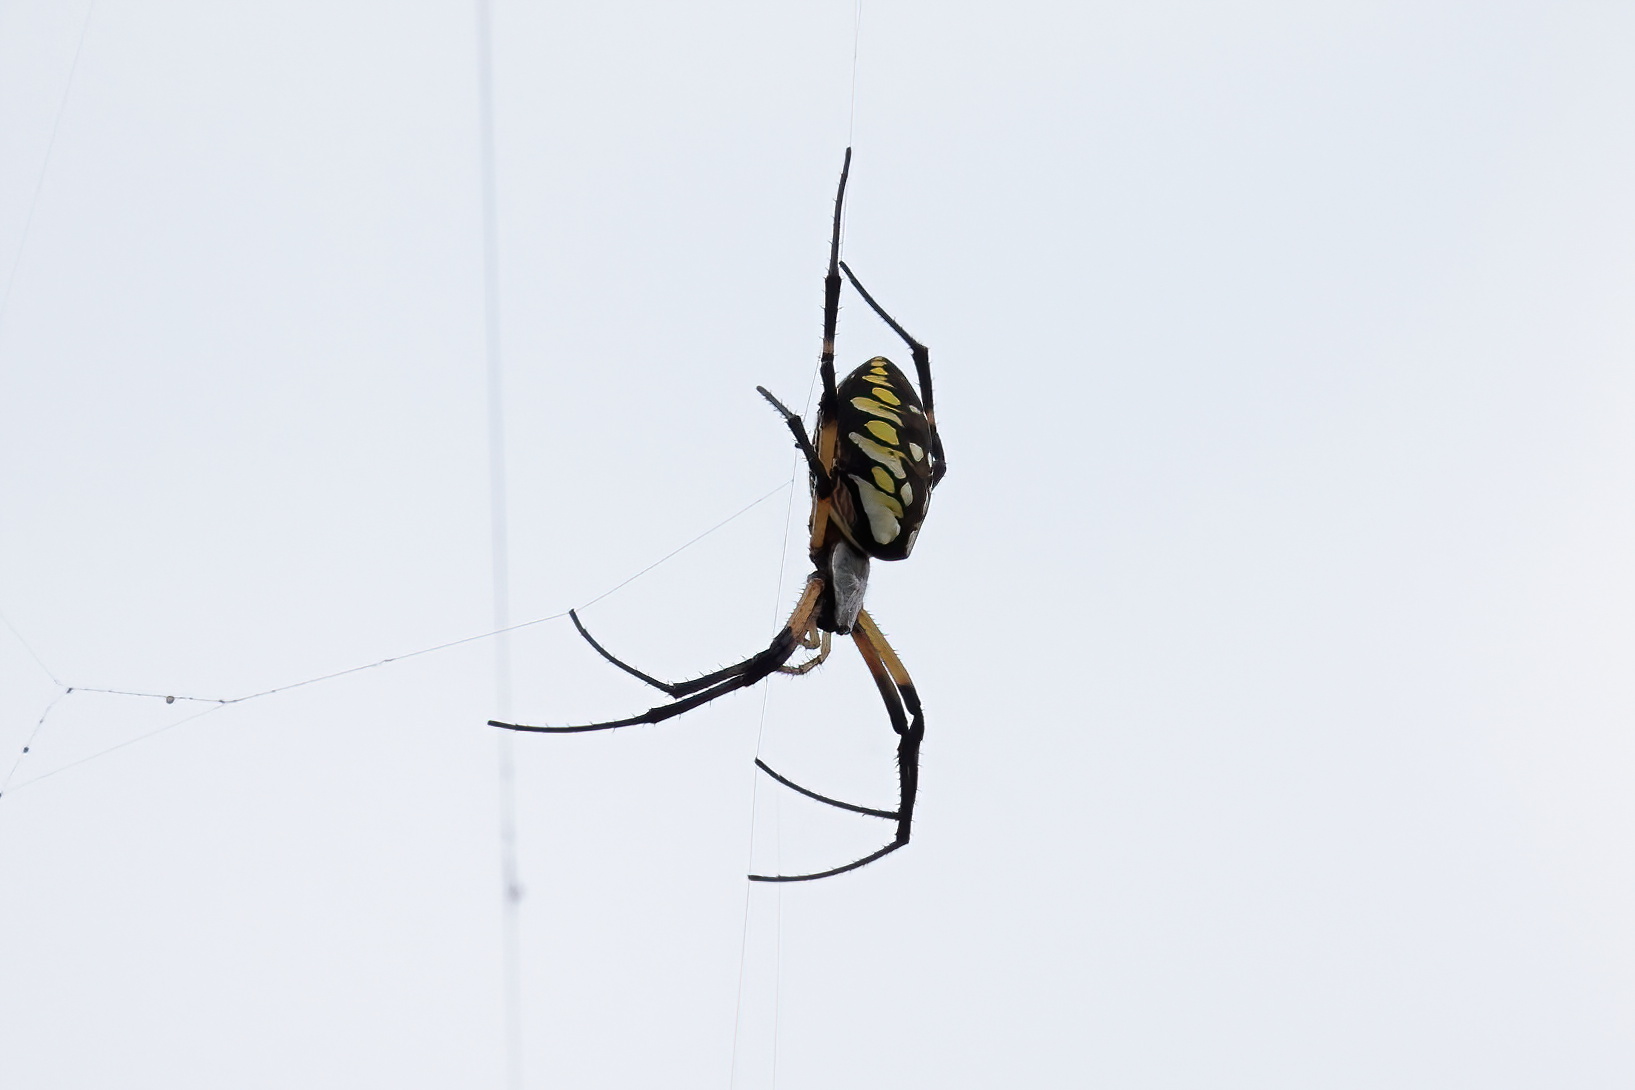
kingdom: Animalia
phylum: Arthropoda
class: Arachnida
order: Araneae
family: Araneidae
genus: Argiope
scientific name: Argiope aurantia
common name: Orb weavers
